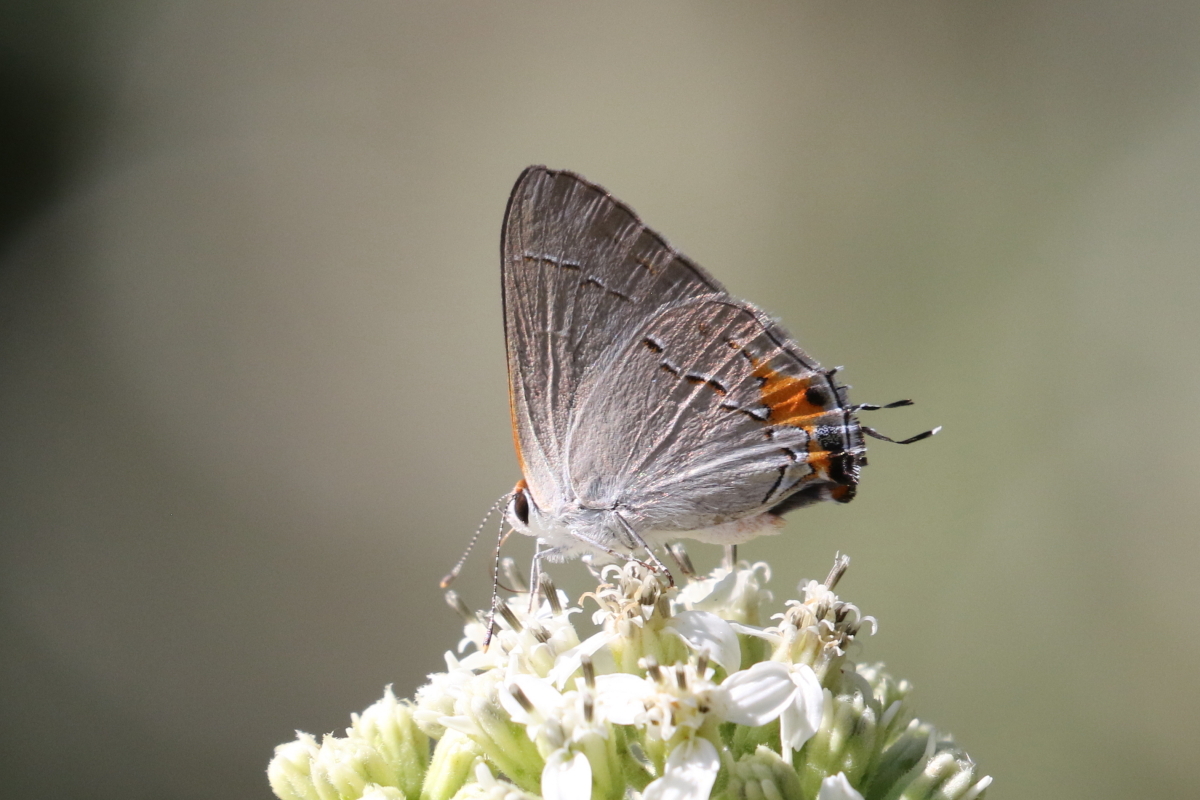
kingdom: Animalia
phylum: Arthropoda
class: Insecta
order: Lepidoptera
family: Lycaenidae
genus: Strymon
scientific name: Strymon melinus
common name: Gray hairstreak
